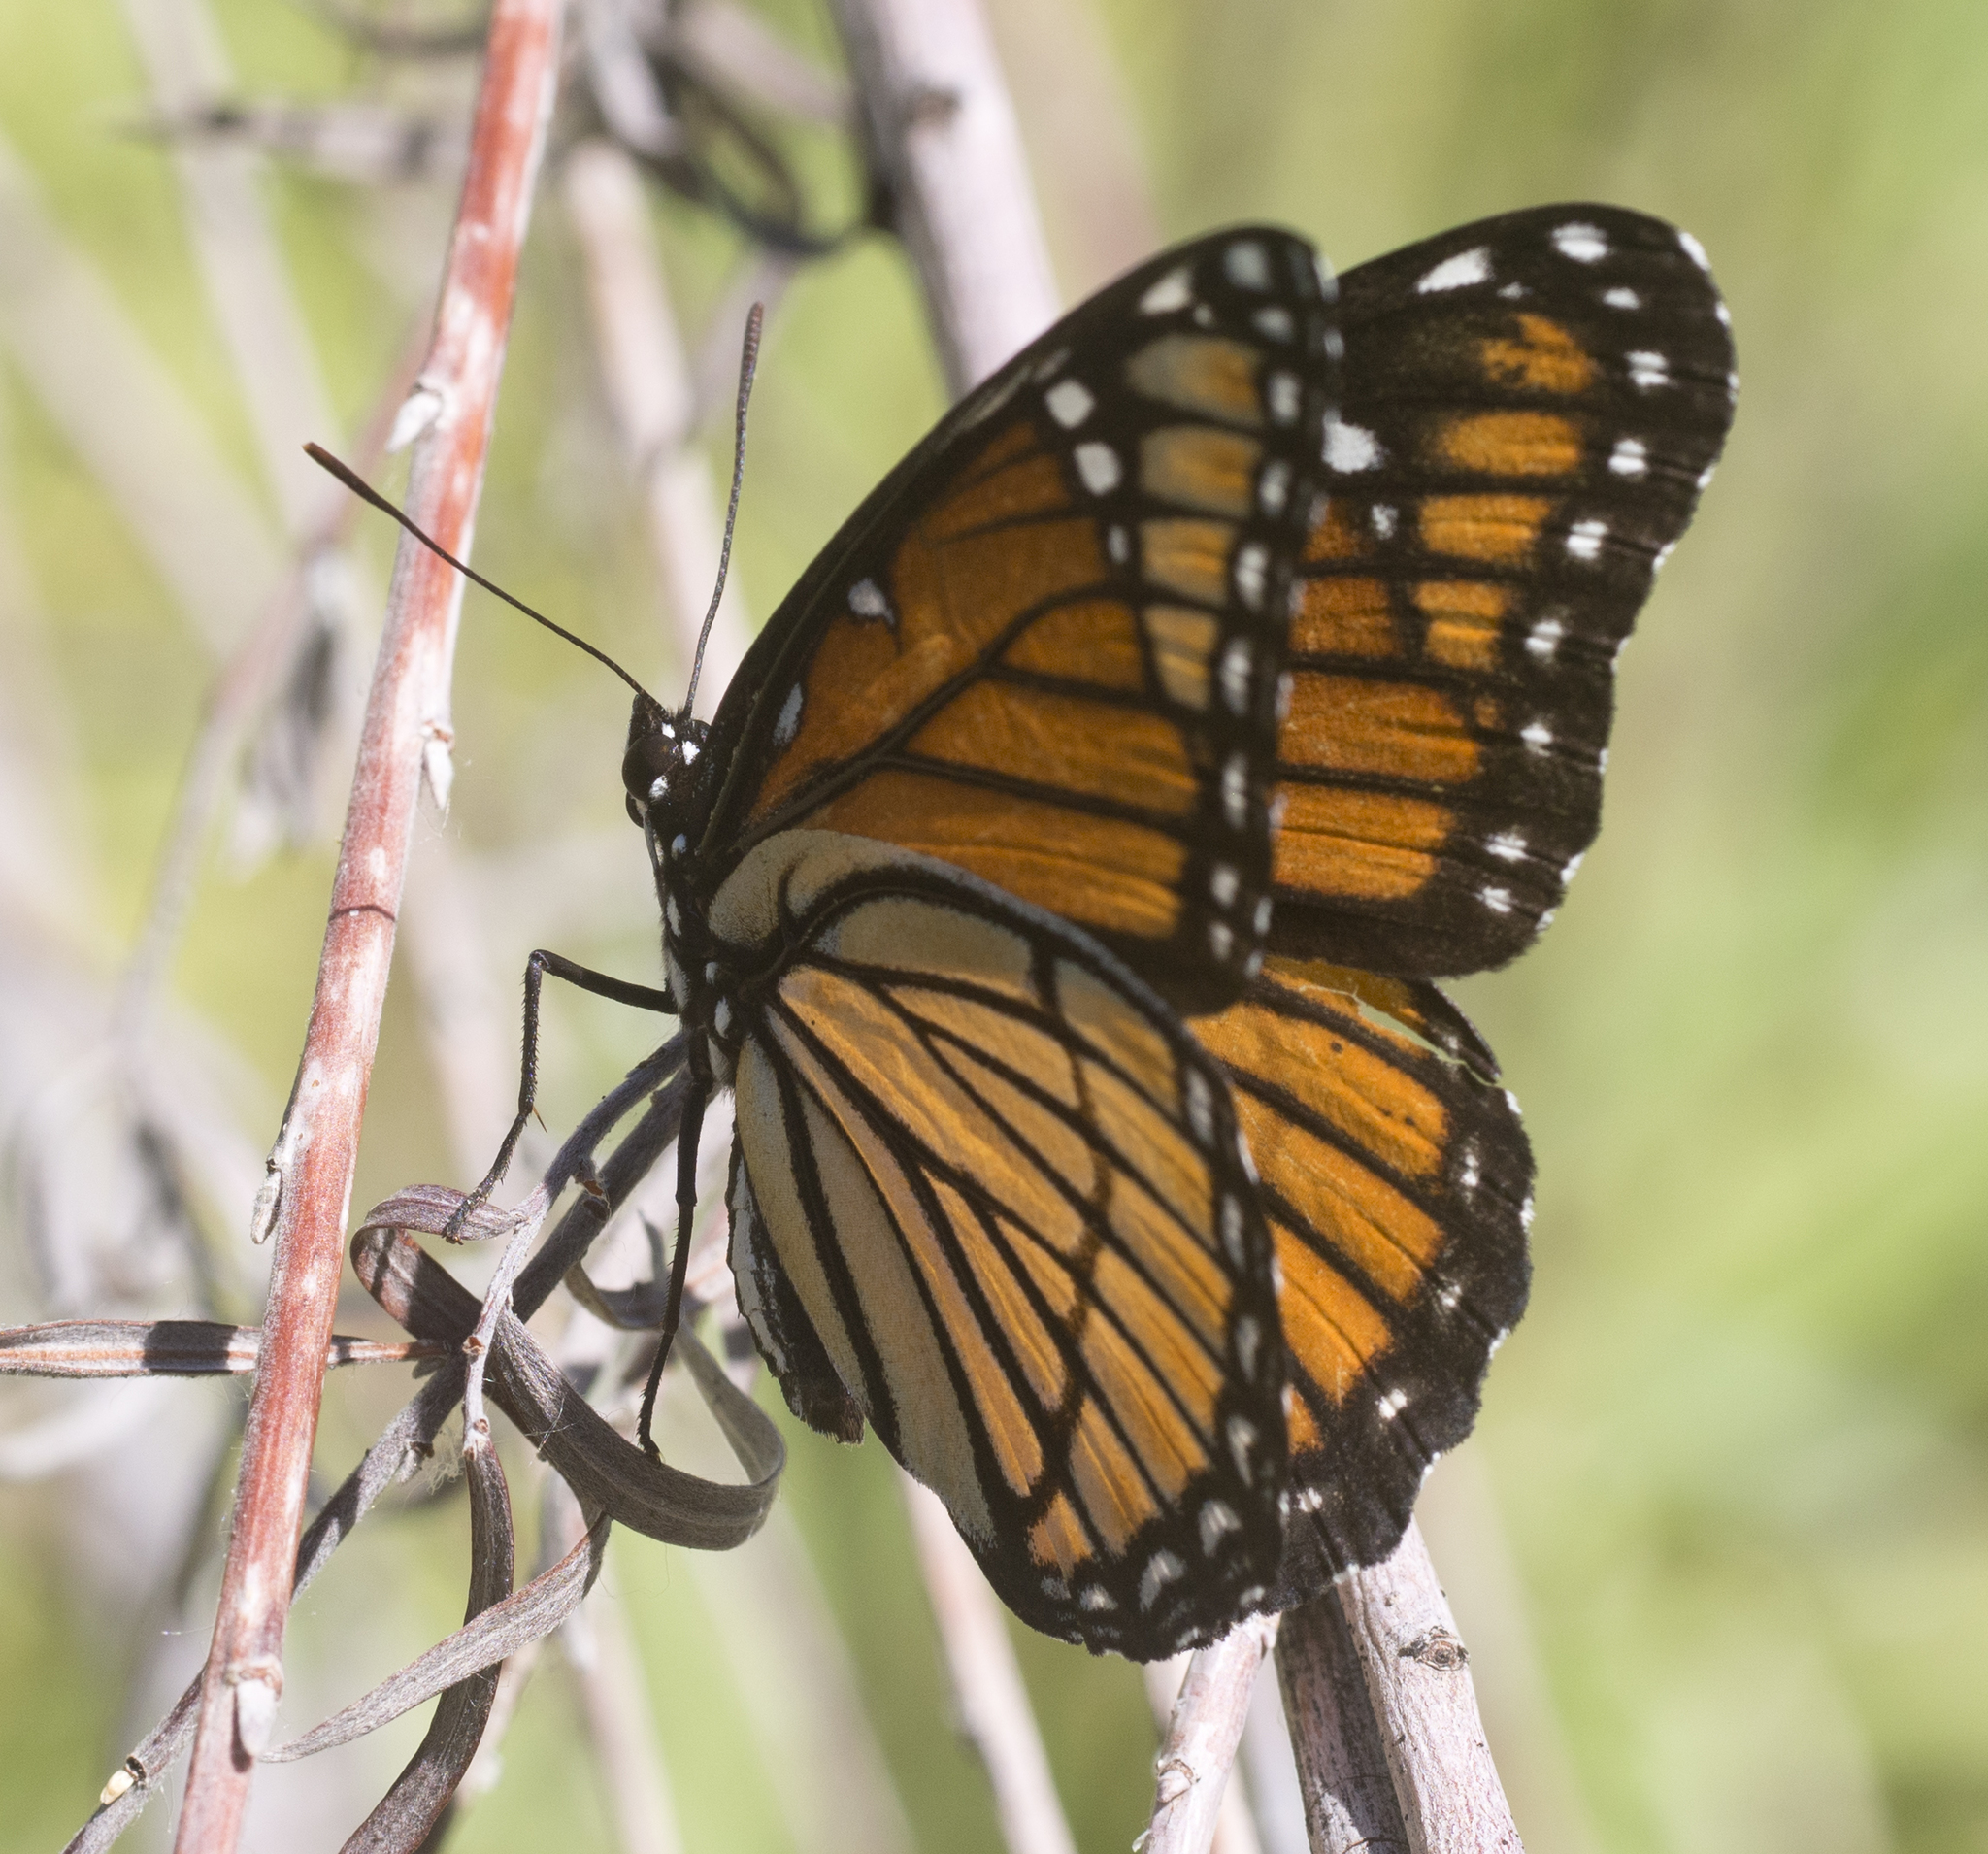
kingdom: Animalia
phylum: Arthropoda
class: Insecta
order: Lepidoptera
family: Nymphalidae
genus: Limenitis
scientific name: Limenitis archippus
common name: Viceroy
